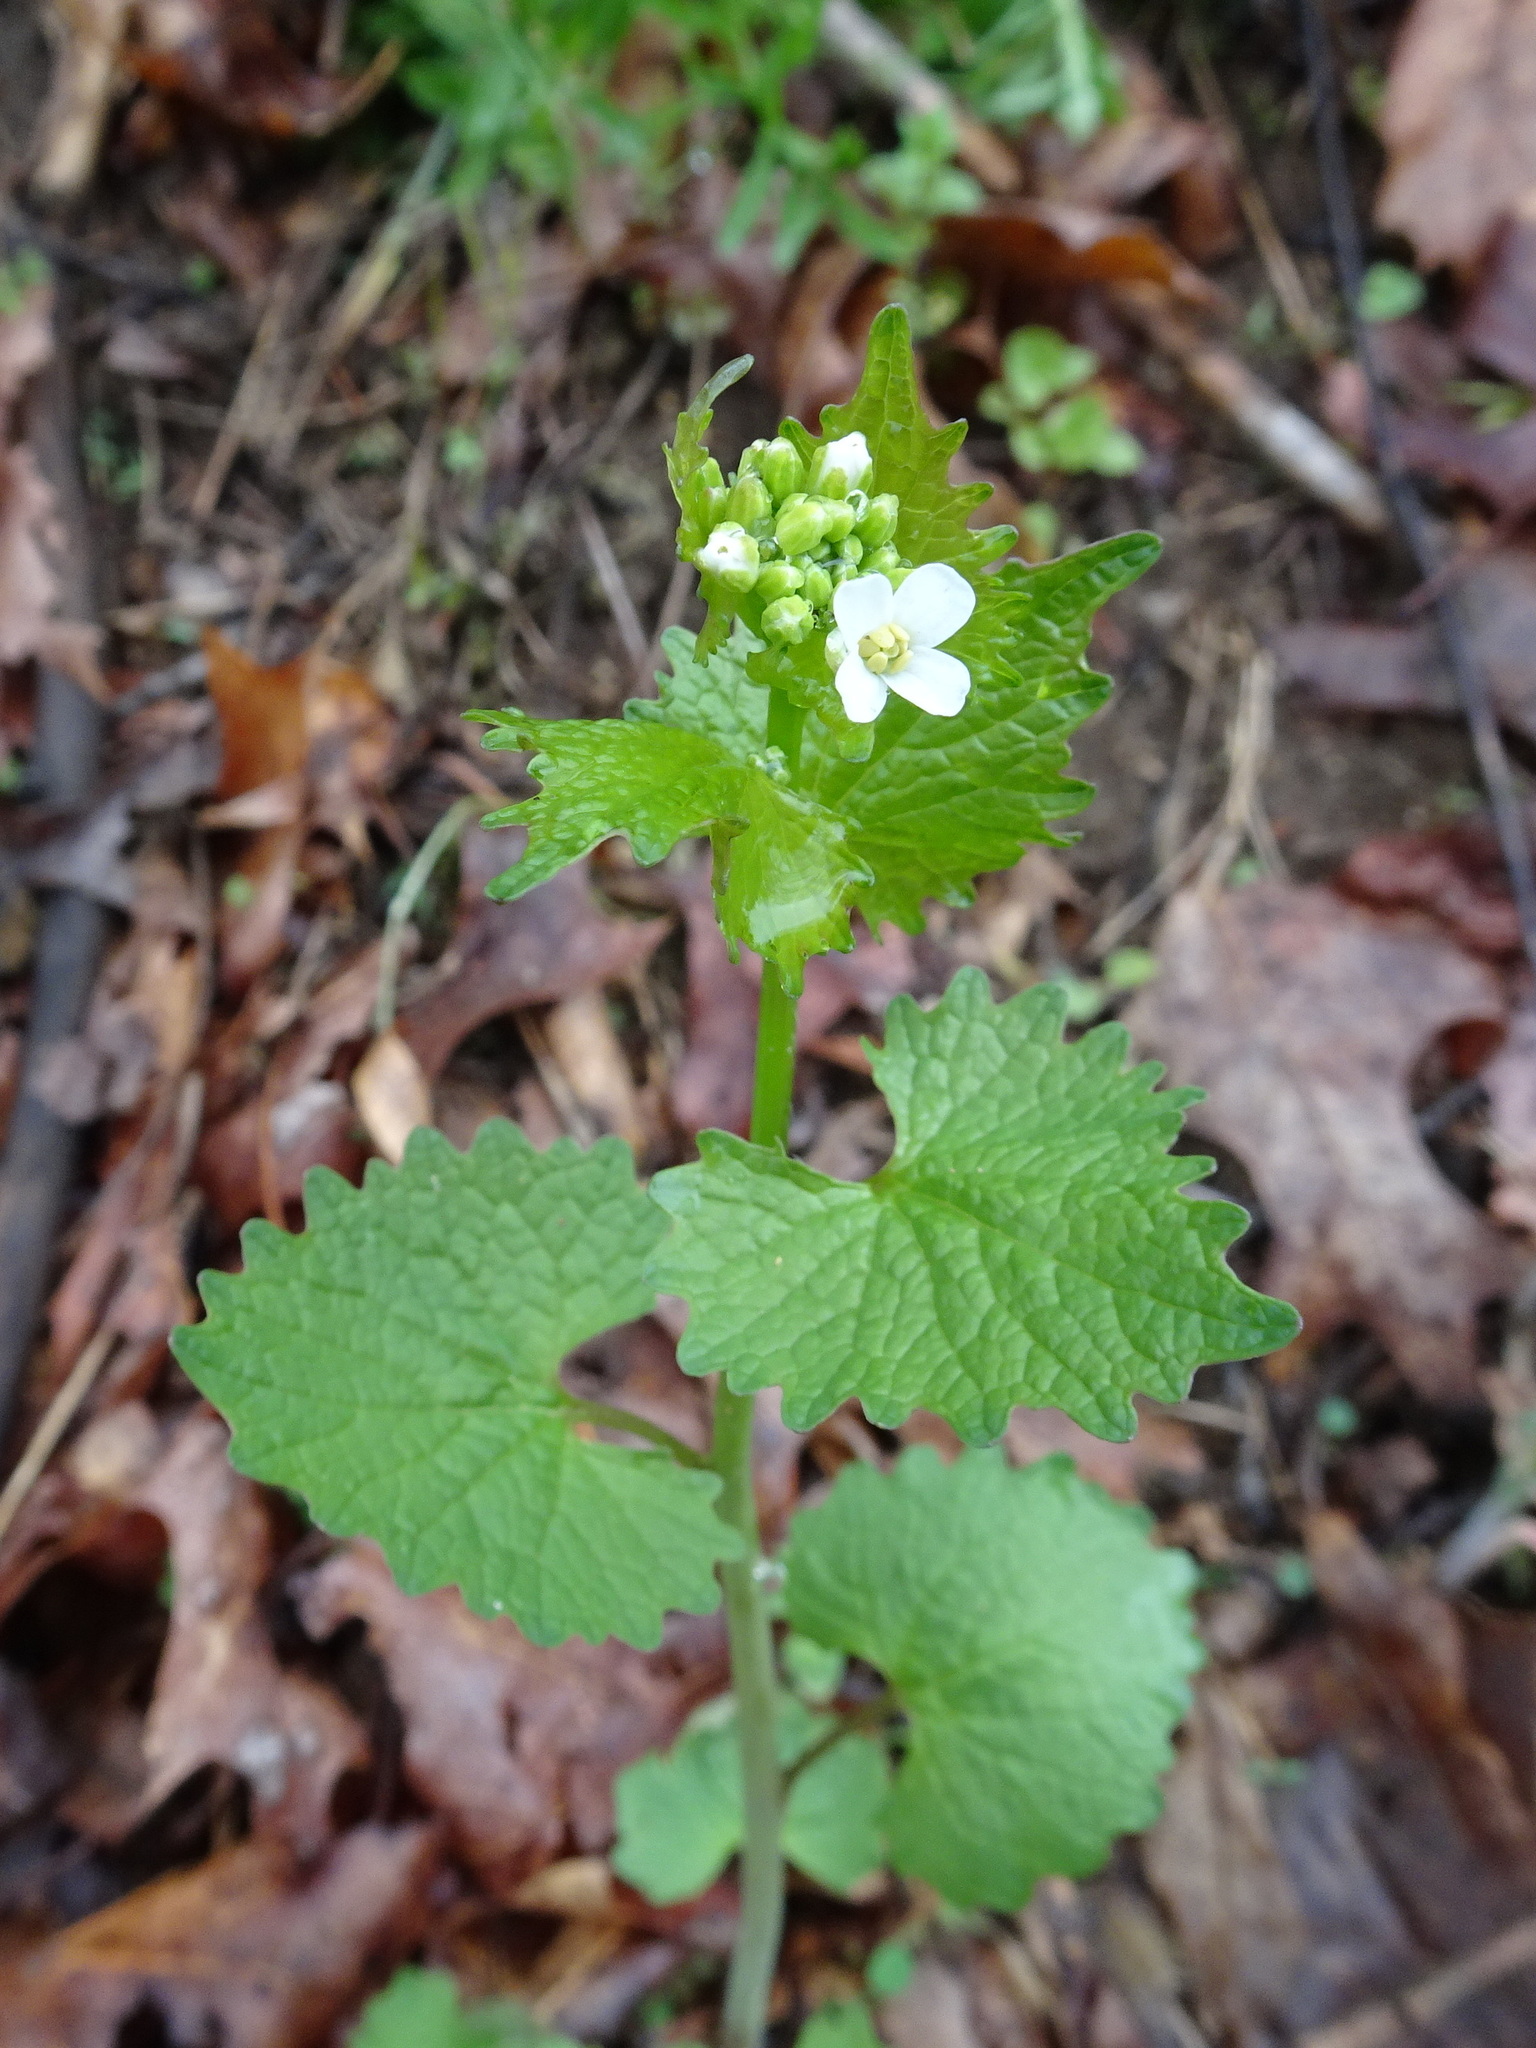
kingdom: Plantae
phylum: Tracheophyta
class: Magnoliopsida
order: Brassicales
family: Brassicaceae
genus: Alliaria
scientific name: Alliaria petiolata
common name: Garlic mustard
